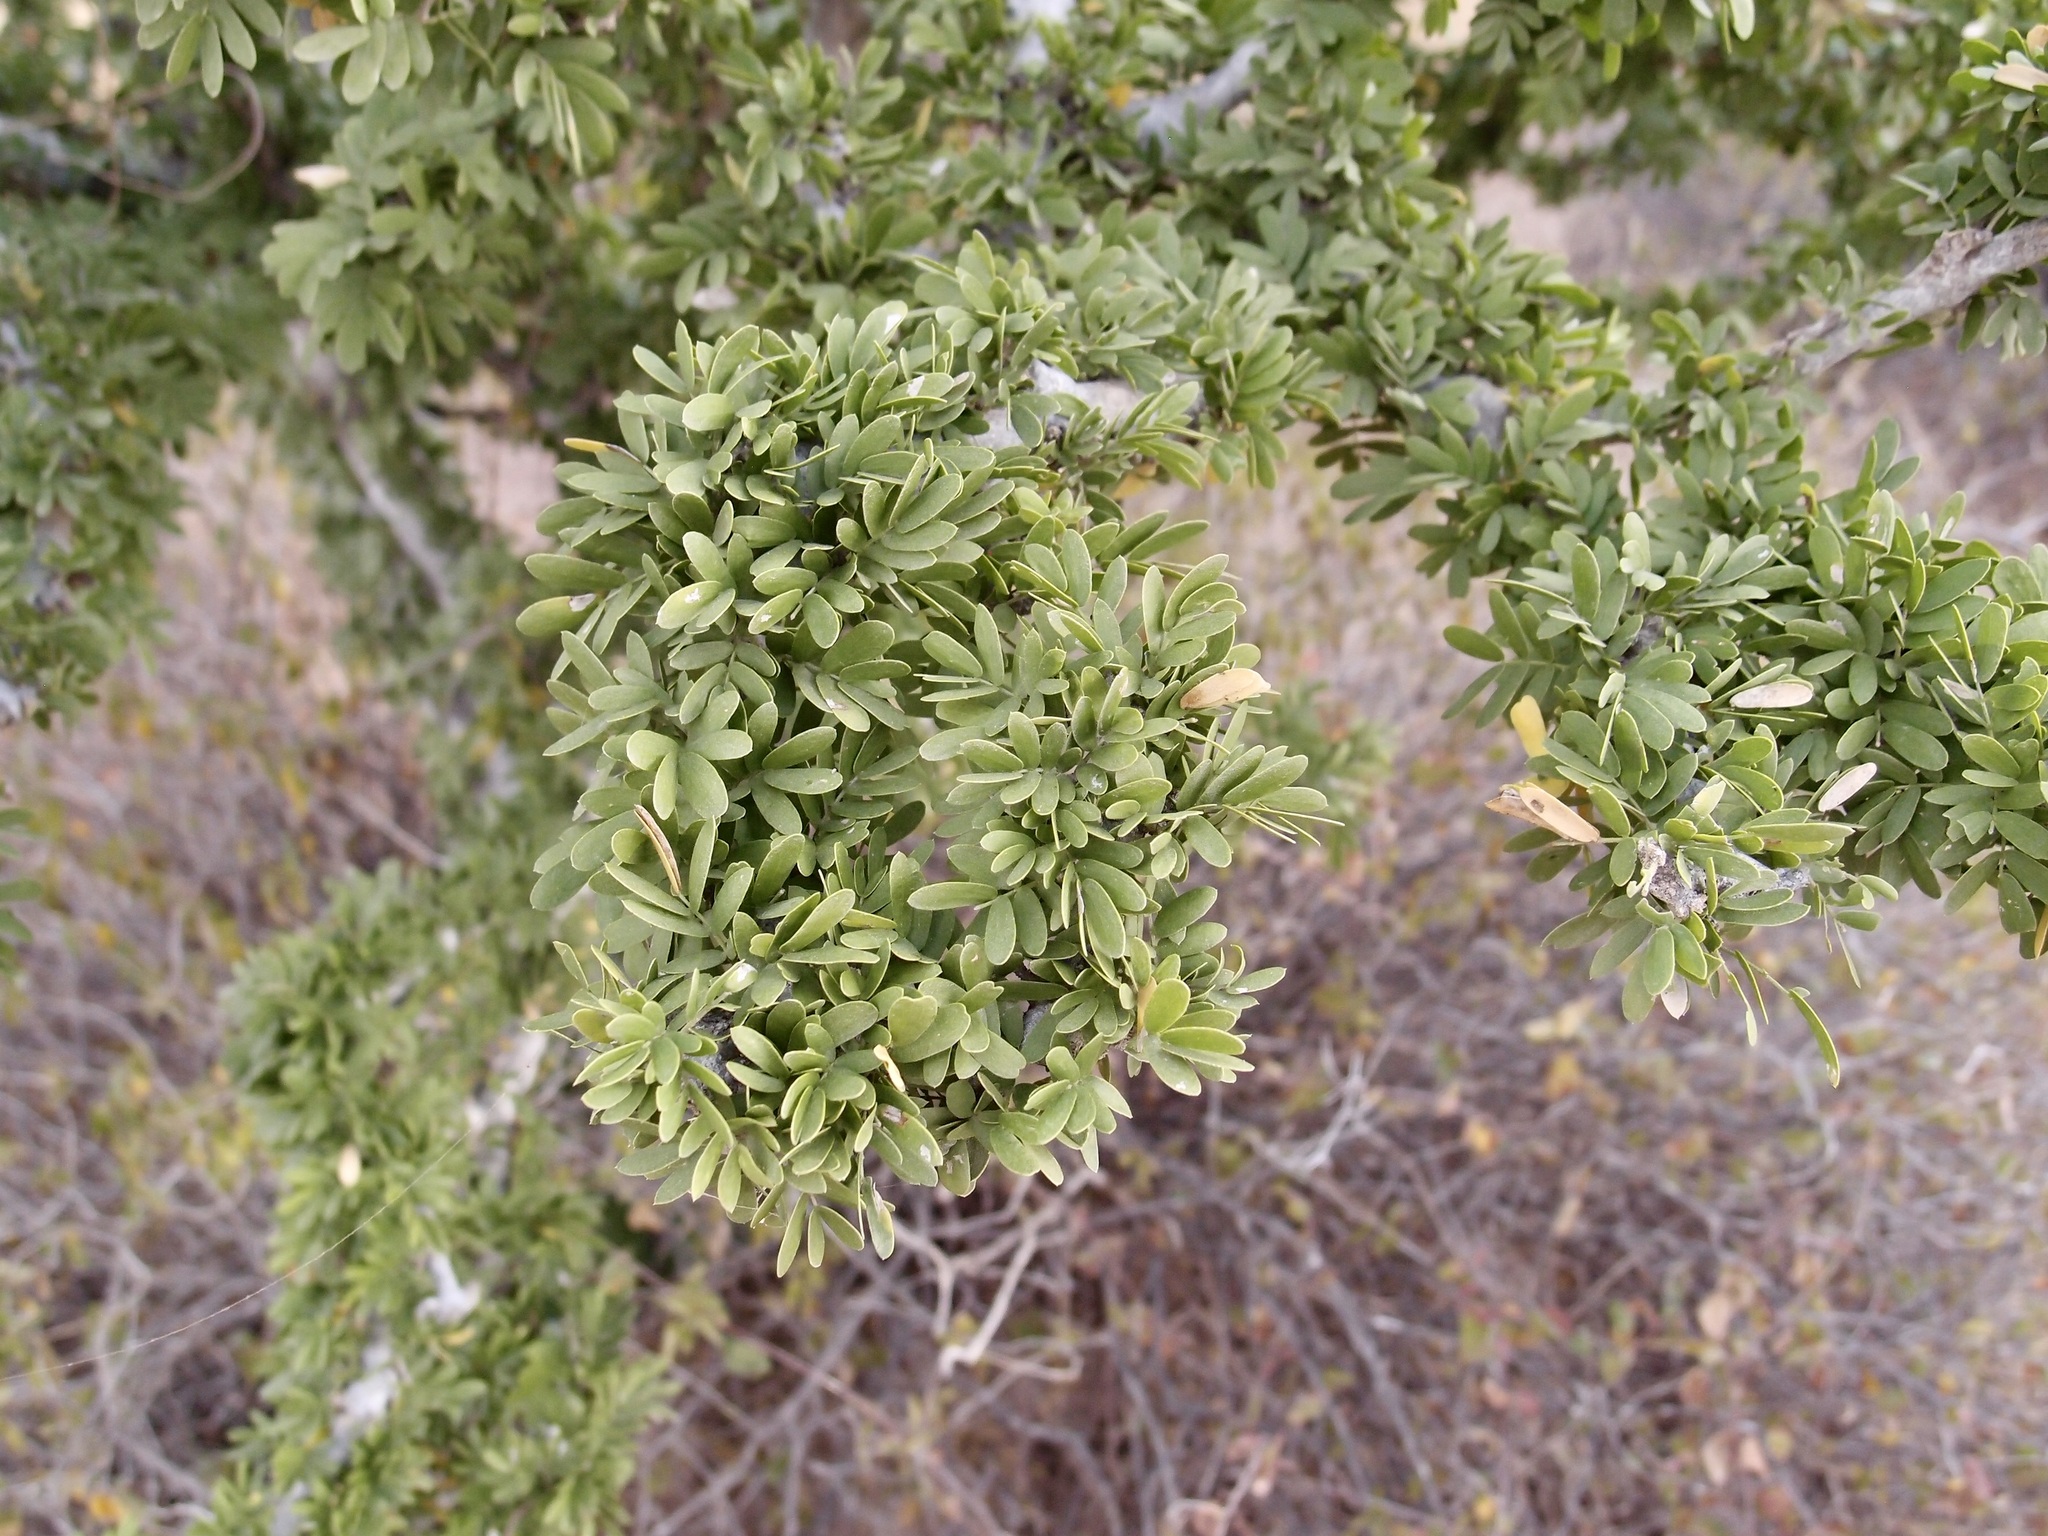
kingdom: Plantae
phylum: Tracheophyta
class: Magnoliopsida
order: Zygophyllales
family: Zygophyllaceae
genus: Guaiacum
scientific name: Guaiacum coulteri
